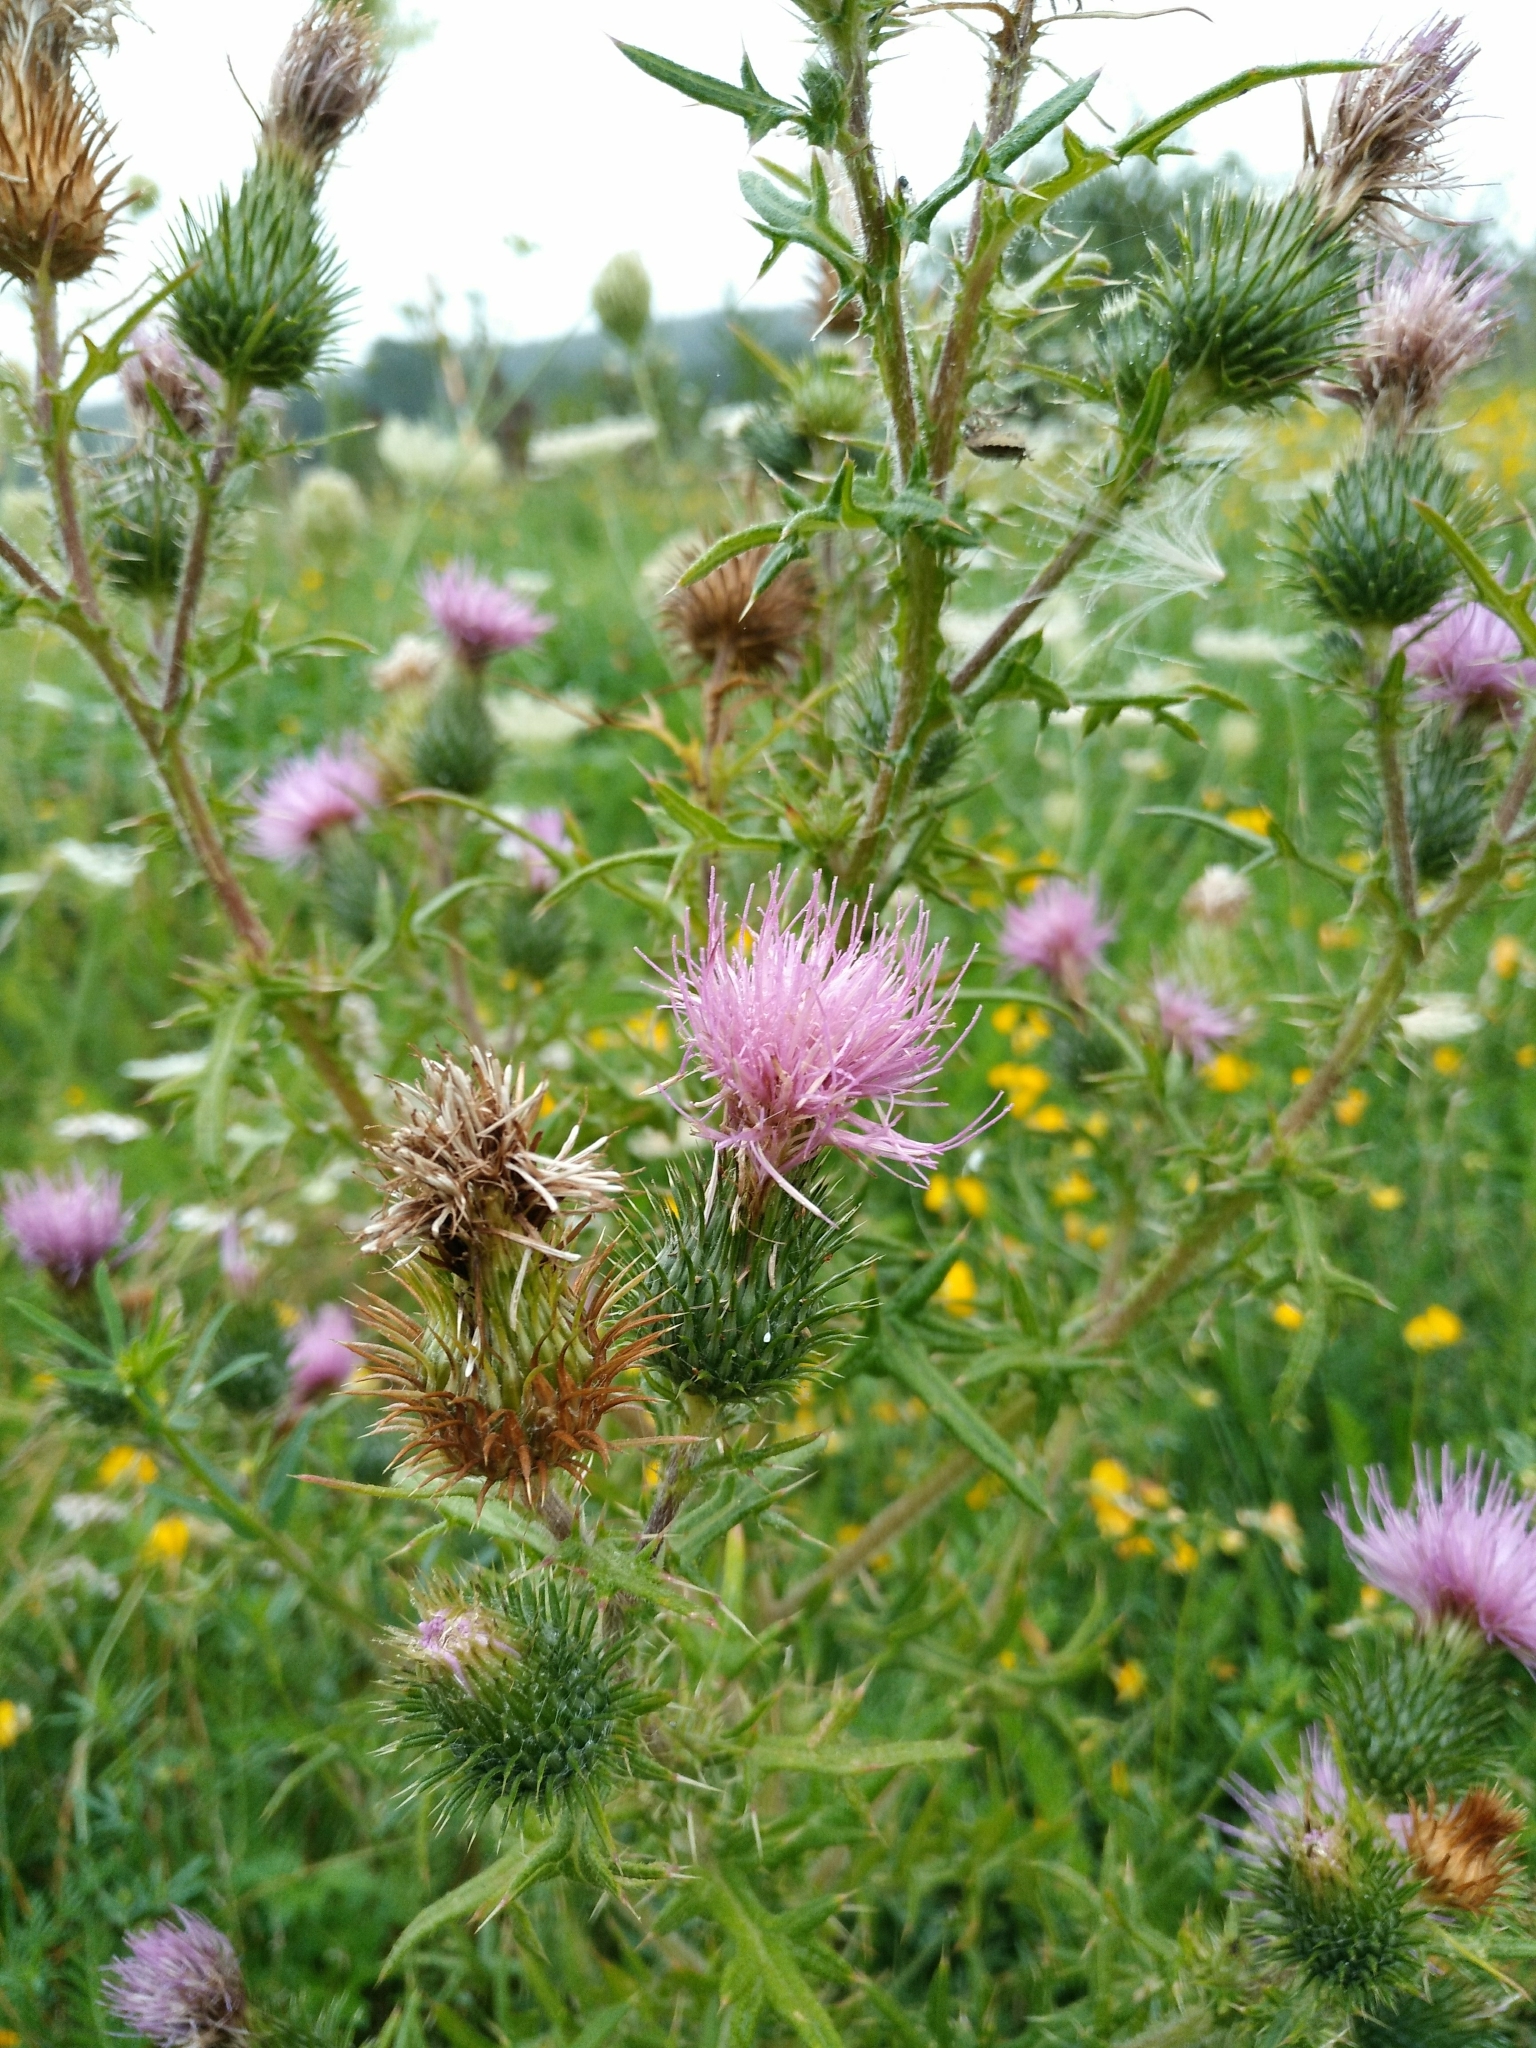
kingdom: Plantae
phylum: Tracheophyta
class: Magnoliopsida
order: Asterales
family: Asteraceae
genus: Cirsium
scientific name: Cirsium vulgare
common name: Bull thistle
